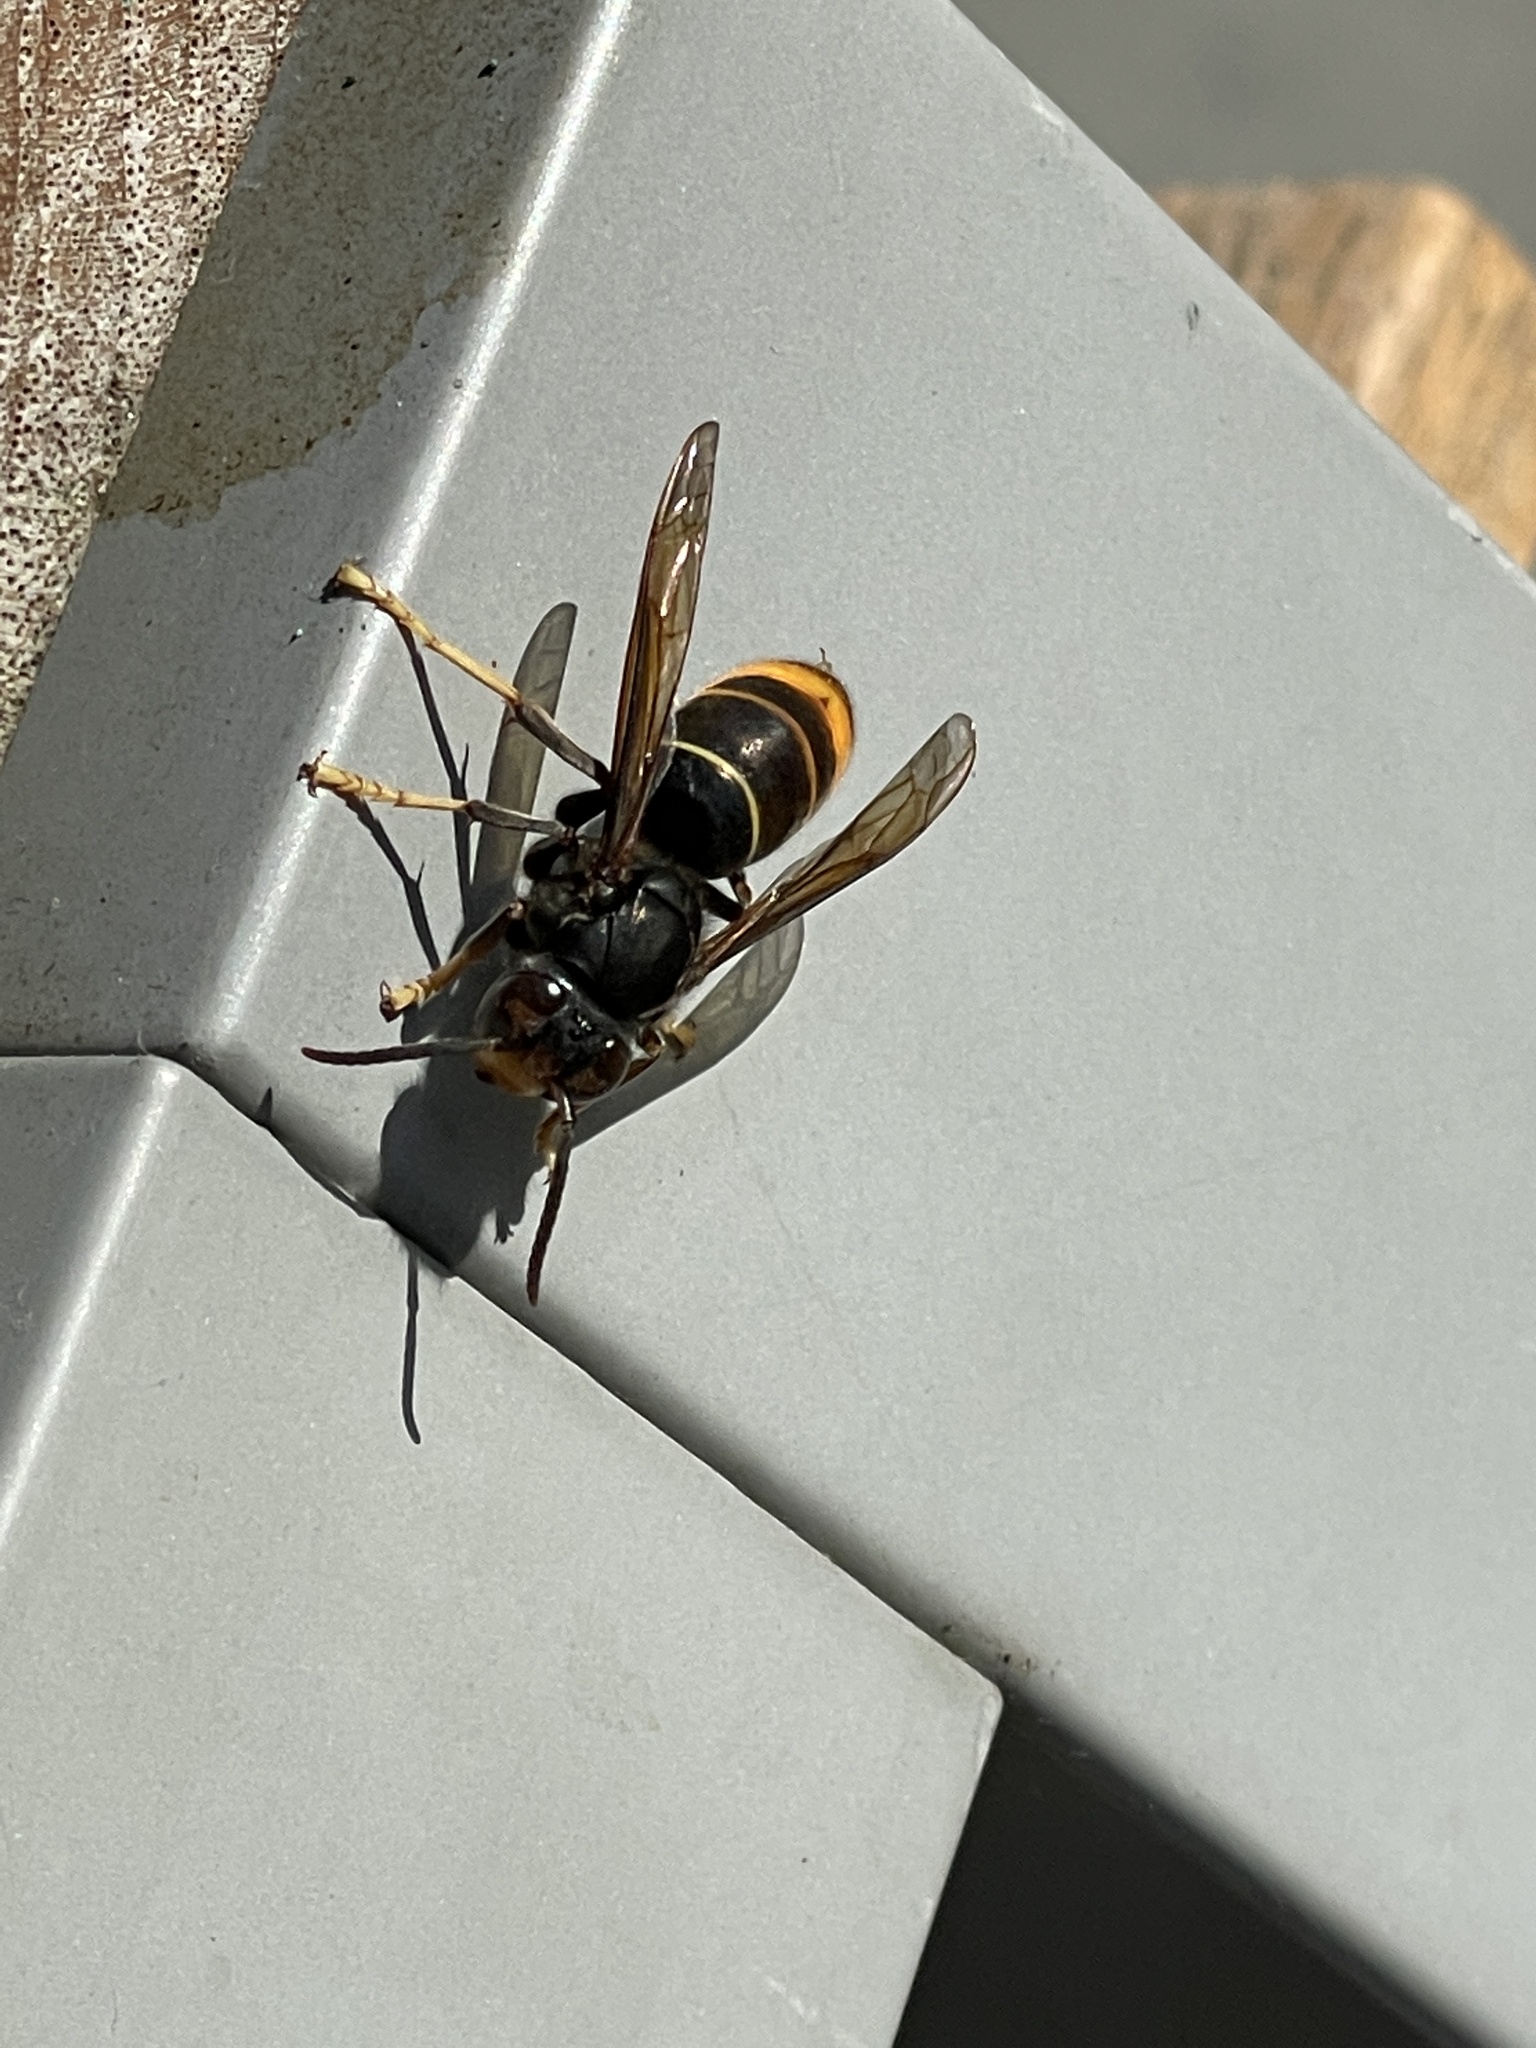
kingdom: Animalia
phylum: Arthropoda
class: Insecta
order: Hymenoptera
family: Vespidae
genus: Vespa
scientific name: Vespa velutina
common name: Asian hornet
